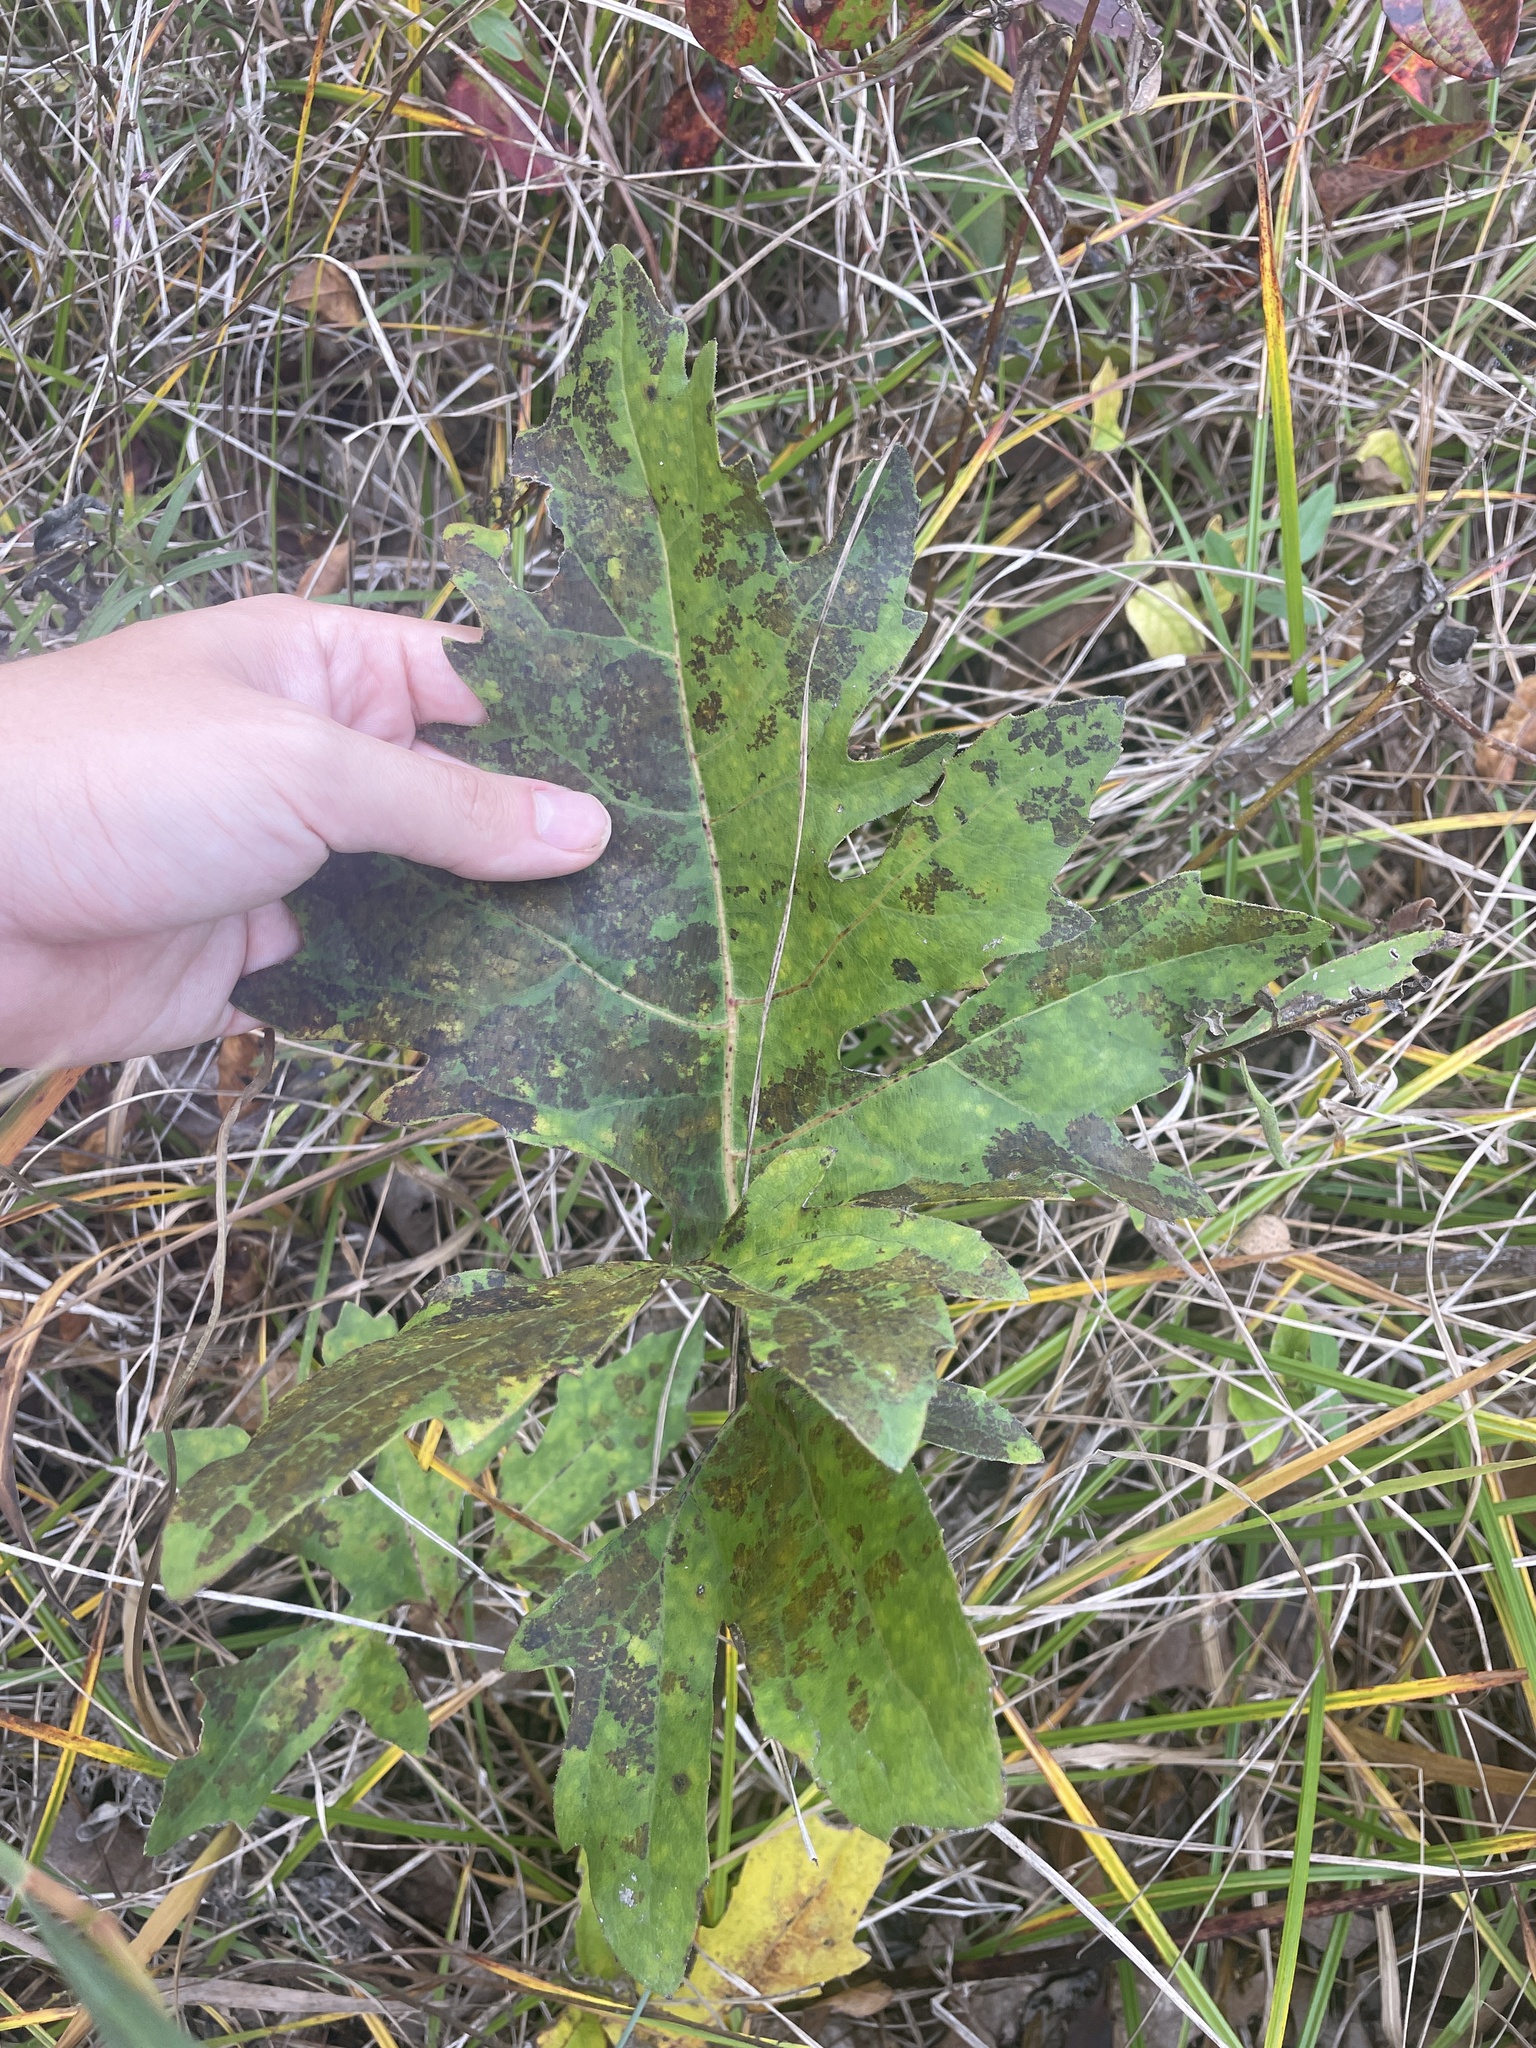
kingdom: Plantae
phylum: Tracheophyta
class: Magnoliopsida
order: Asterales
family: Asteraceae
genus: Silphium
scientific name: Silphium compositum
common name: Lesser basal-leaf rosinweed
